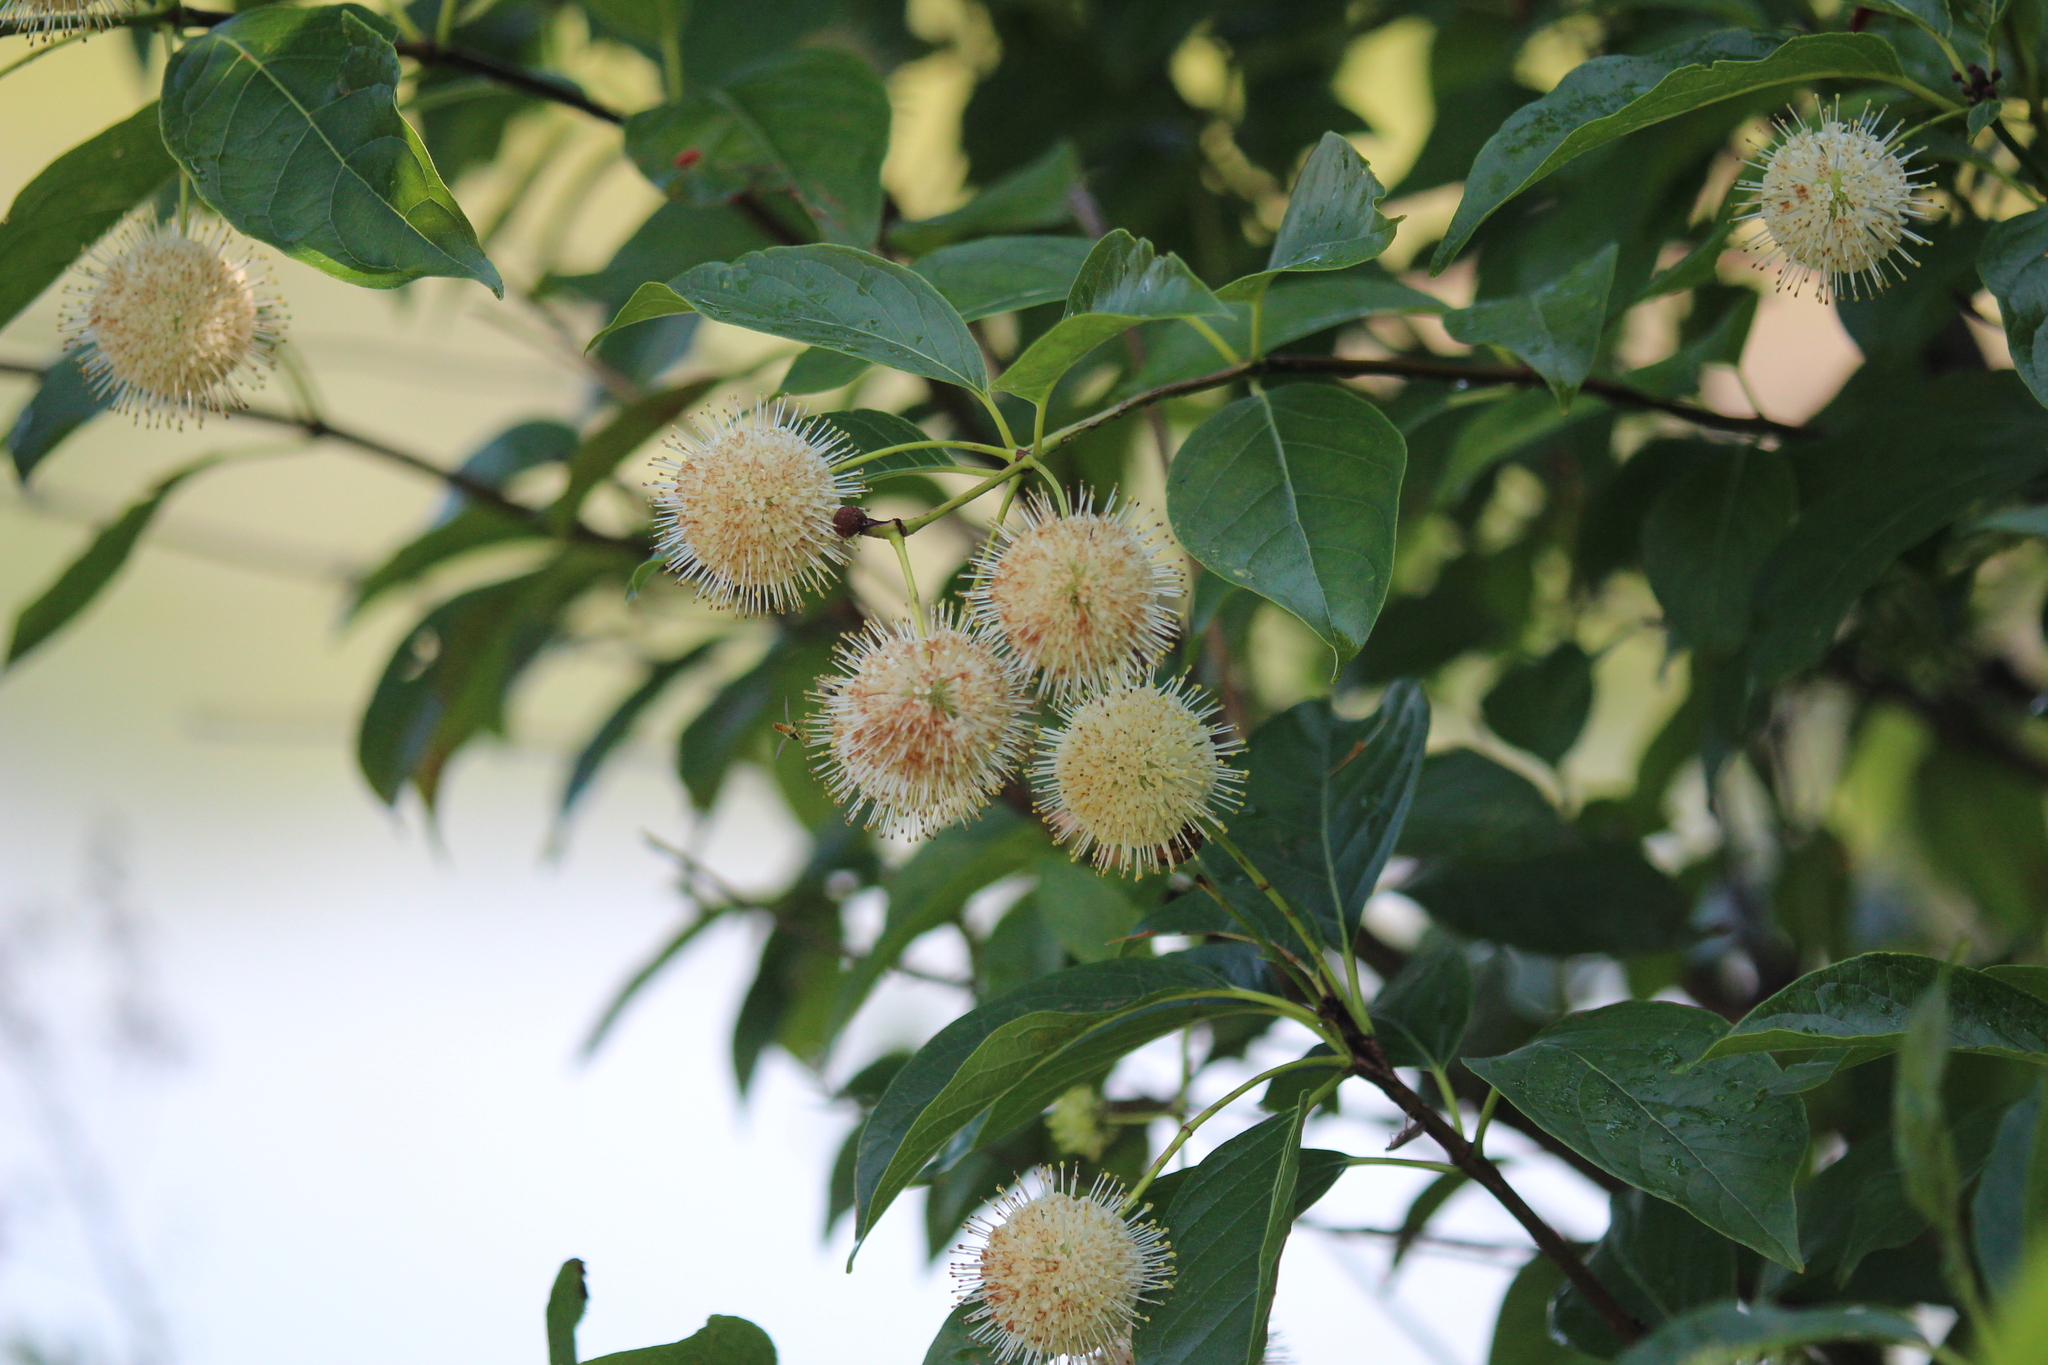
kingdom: Plantae
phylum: Tracheophyta
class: Magnoliopsida
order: Gentianales
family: Rubiaceae
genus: Cephalanthus
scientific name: Cephalanthus occidentalis
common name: Button-willow
